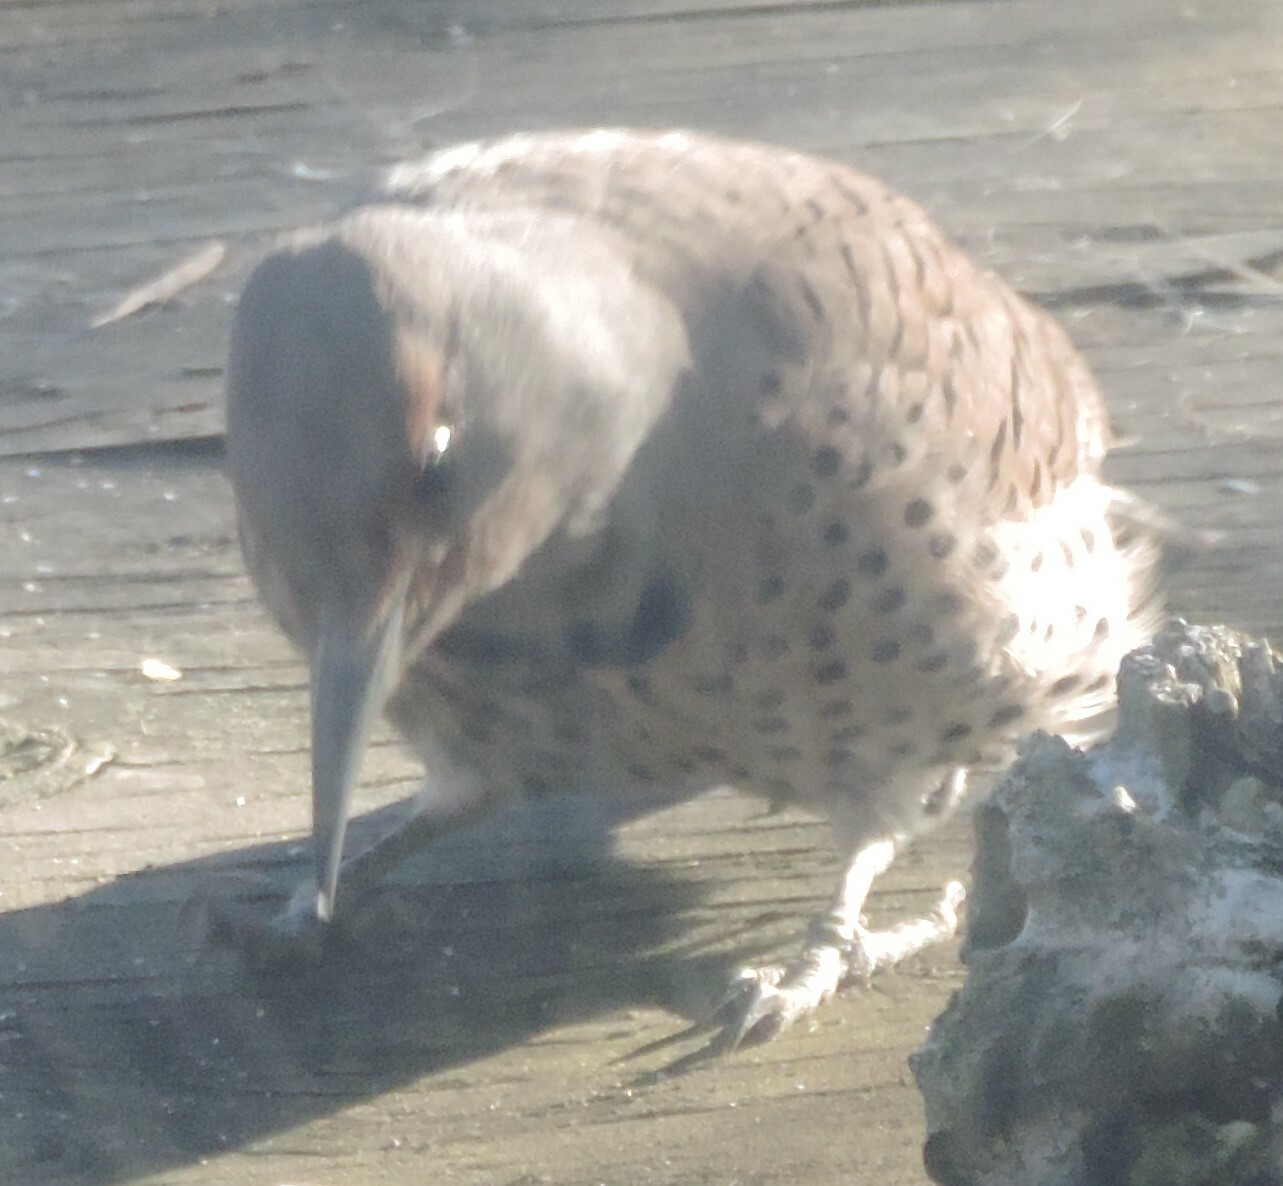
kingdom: Animalia
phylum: Chordata
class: Aves
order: Piciformes
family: Picidae
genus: Colaptes
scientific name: Colaptes auratus
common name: Northern flicker
